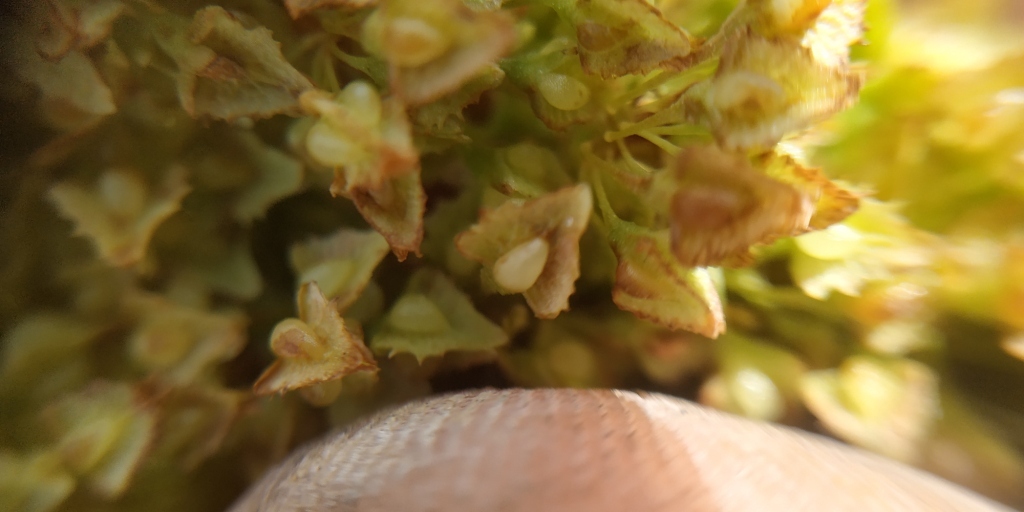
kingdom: Plantae
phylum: Tracheophyta
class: Magnoliopsida
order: Caryophyllales
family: Polygonaceae
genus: Rumex
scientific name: Rumex stenophyllus
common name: Narrowleaf dock
